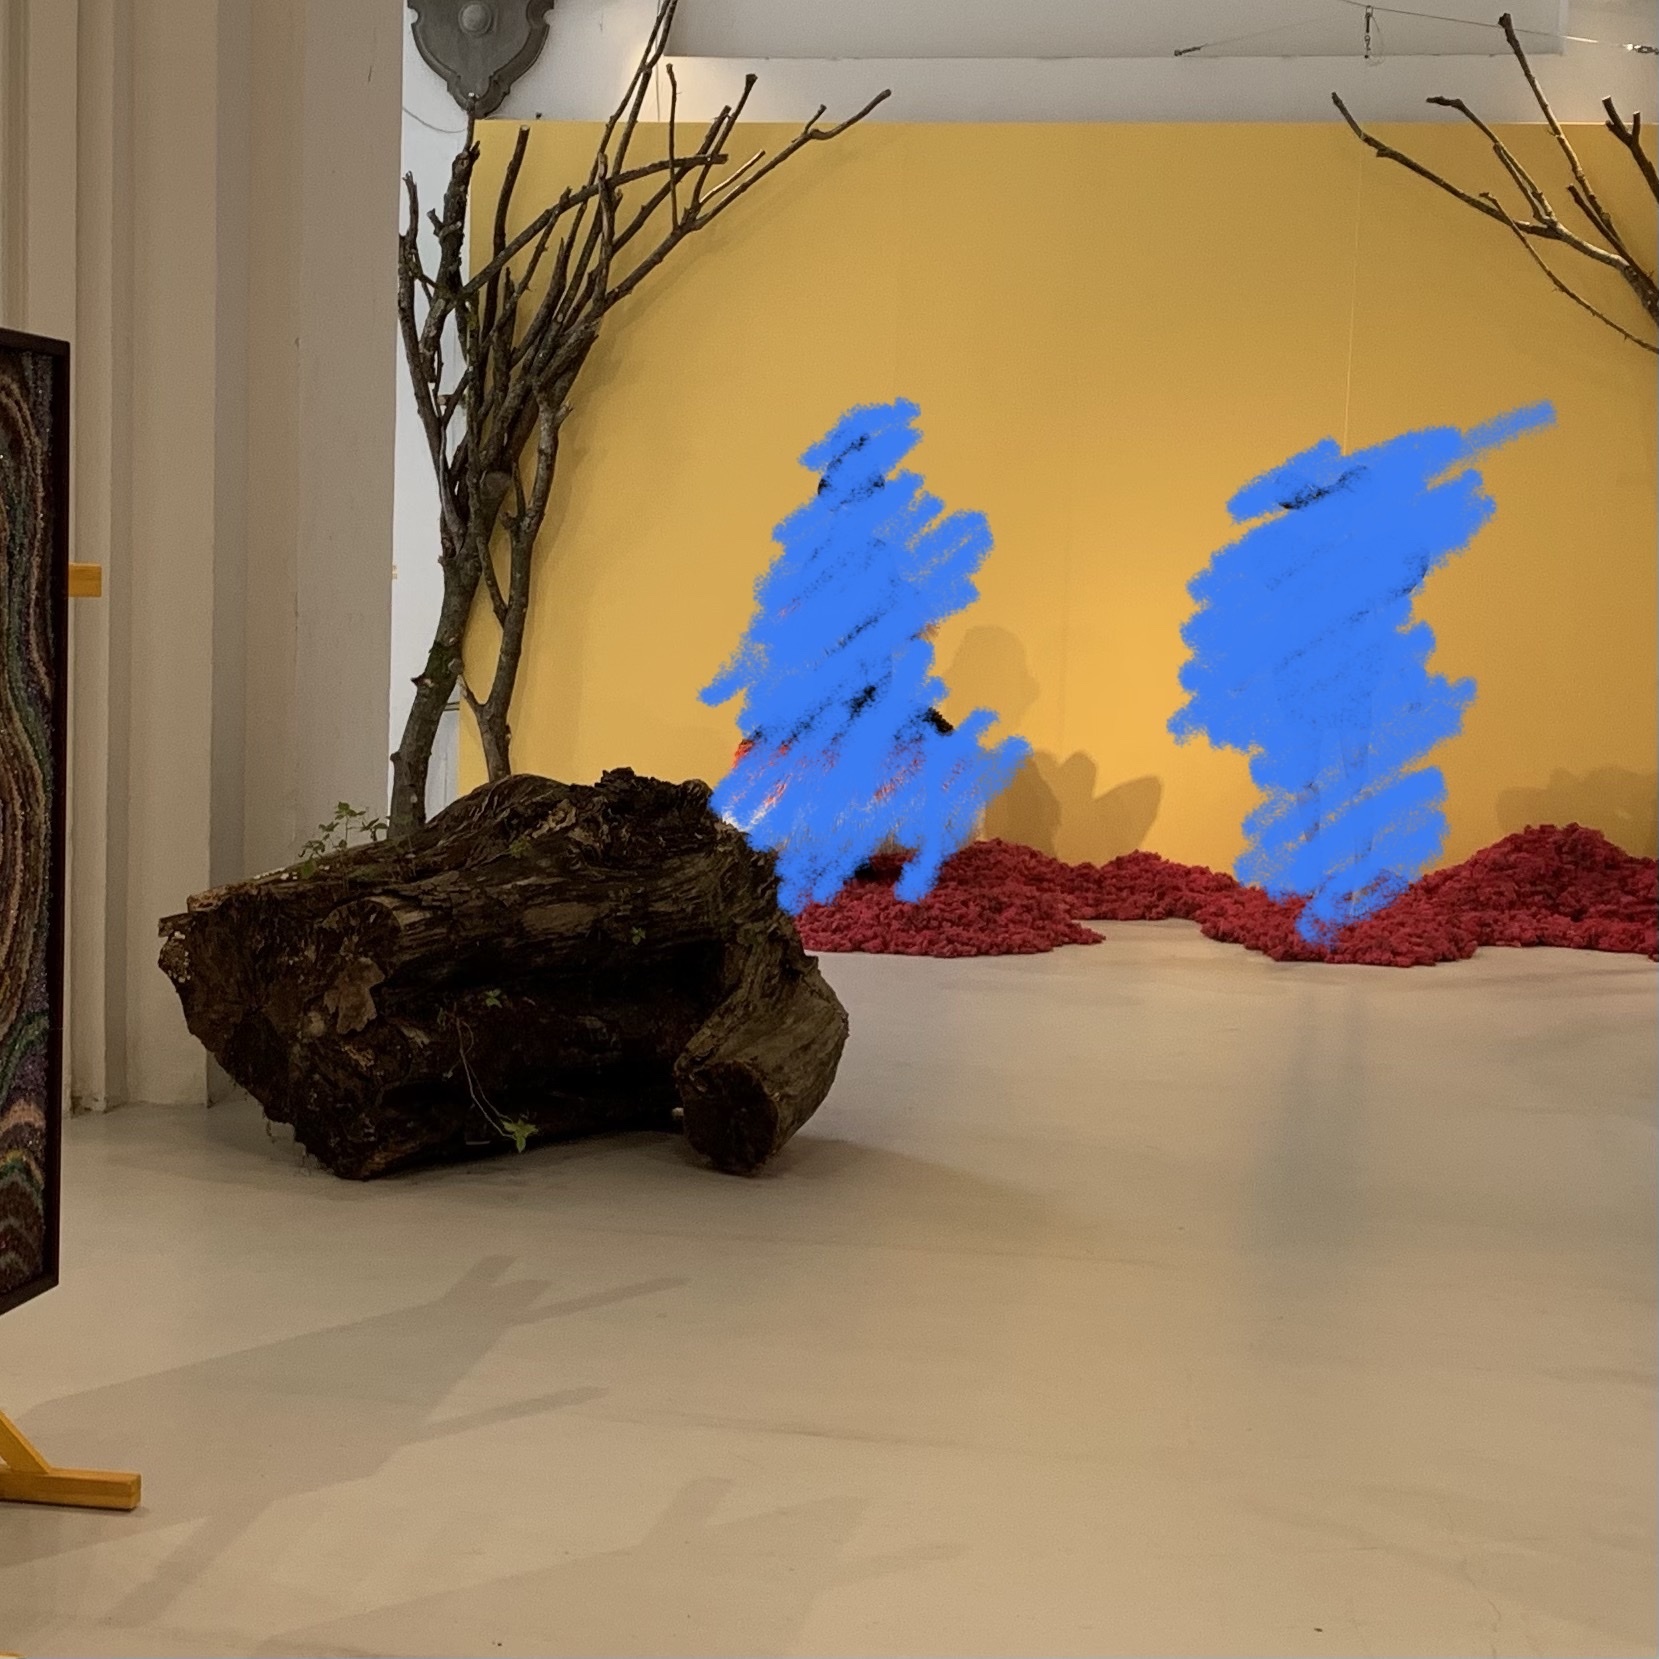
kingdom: Plantae
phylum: Tracheophyta
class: Magnoliopsida
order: Ericales
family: Balsaminaceae
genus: Impatiens
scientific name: Impatiens parviflora
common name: Small balsam
